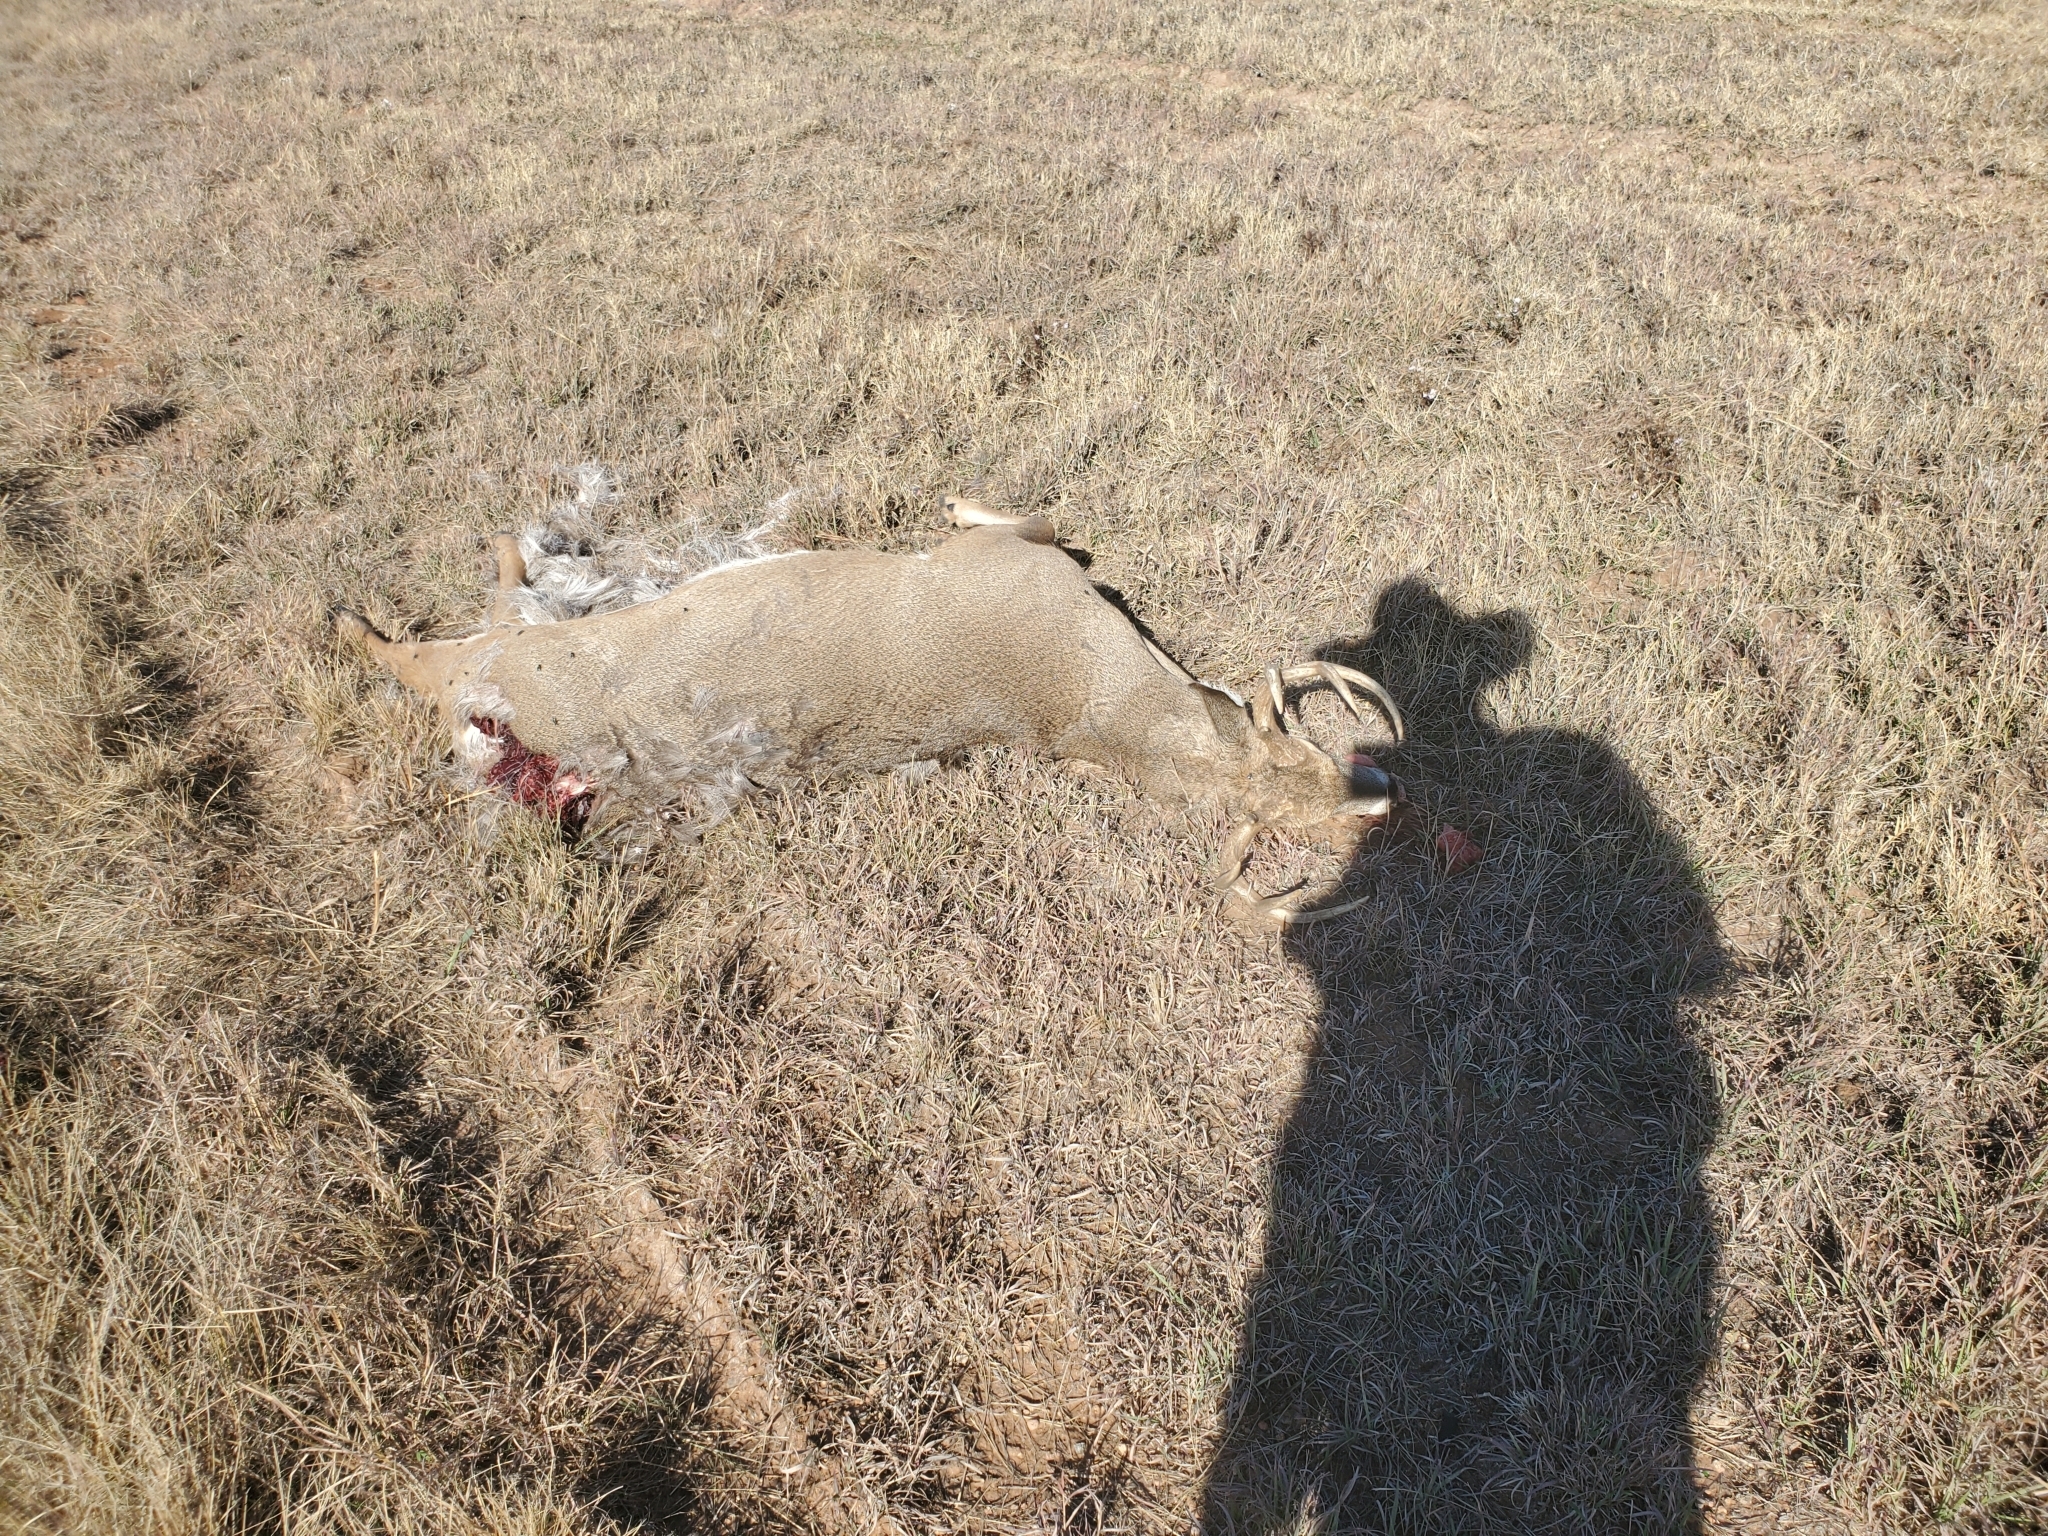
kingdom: Animalia
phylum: Chordata
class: Mammalia
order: Artiodactyla
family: Cervidae
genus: Odocoileus
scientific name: Odocoileus virginianus
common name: White-tailed deer
